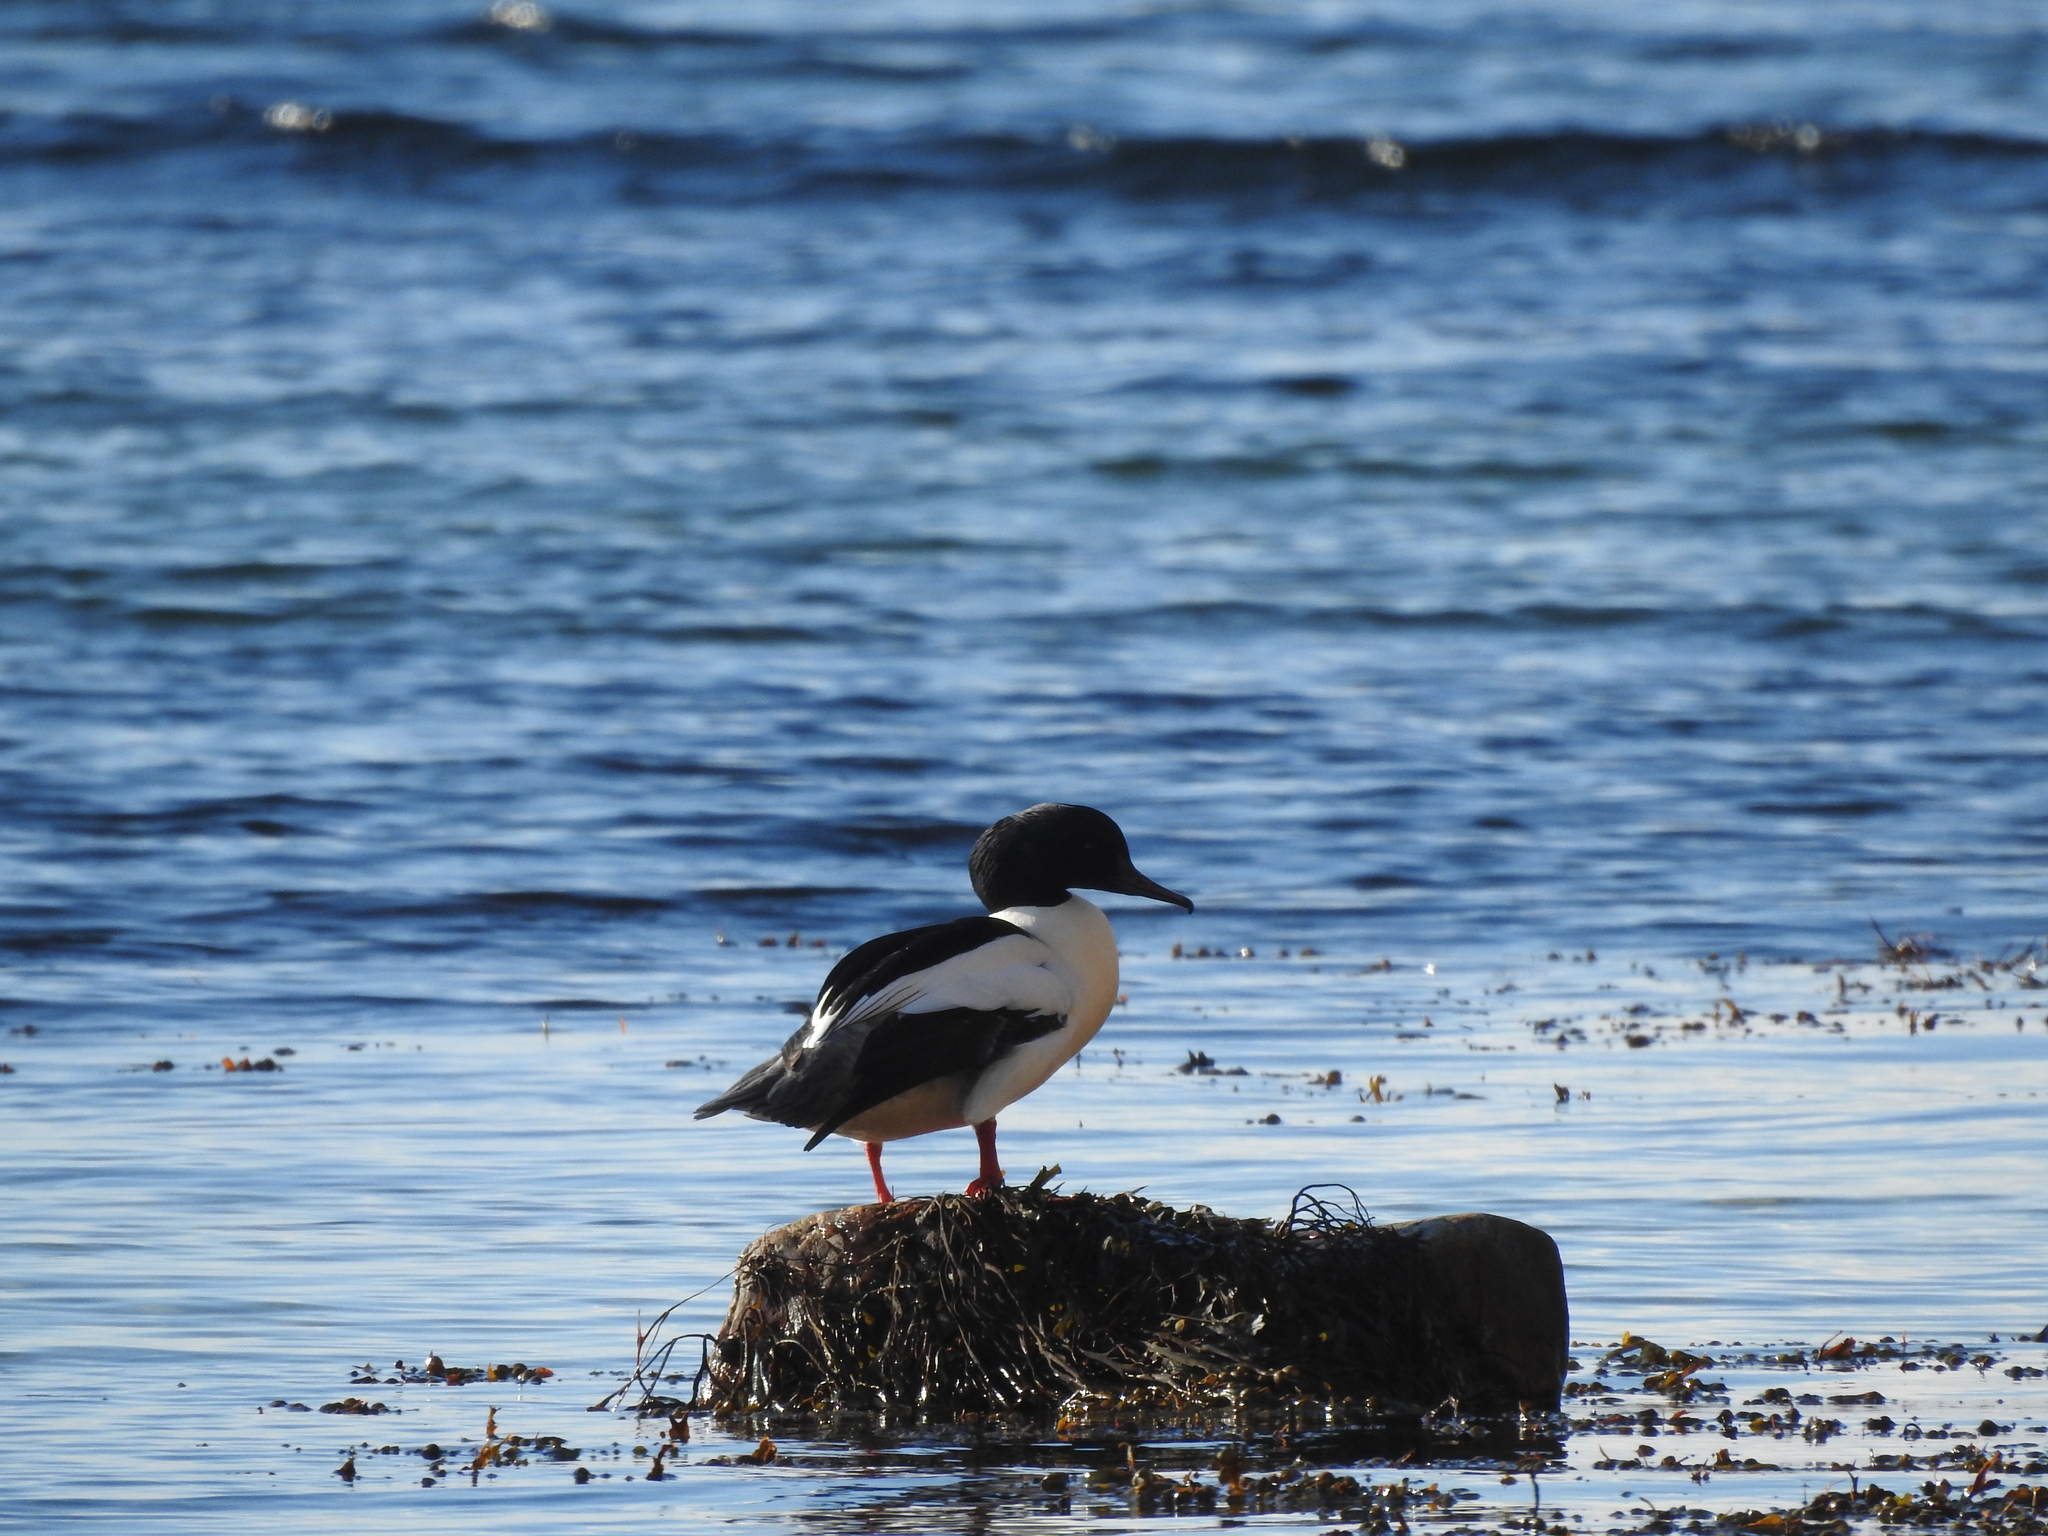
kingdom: Animalia
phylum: Chordata
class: Aves
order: Anseriformes
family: Anatidae
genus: Mergus
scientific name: Mergus merganser
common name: Common merganser
